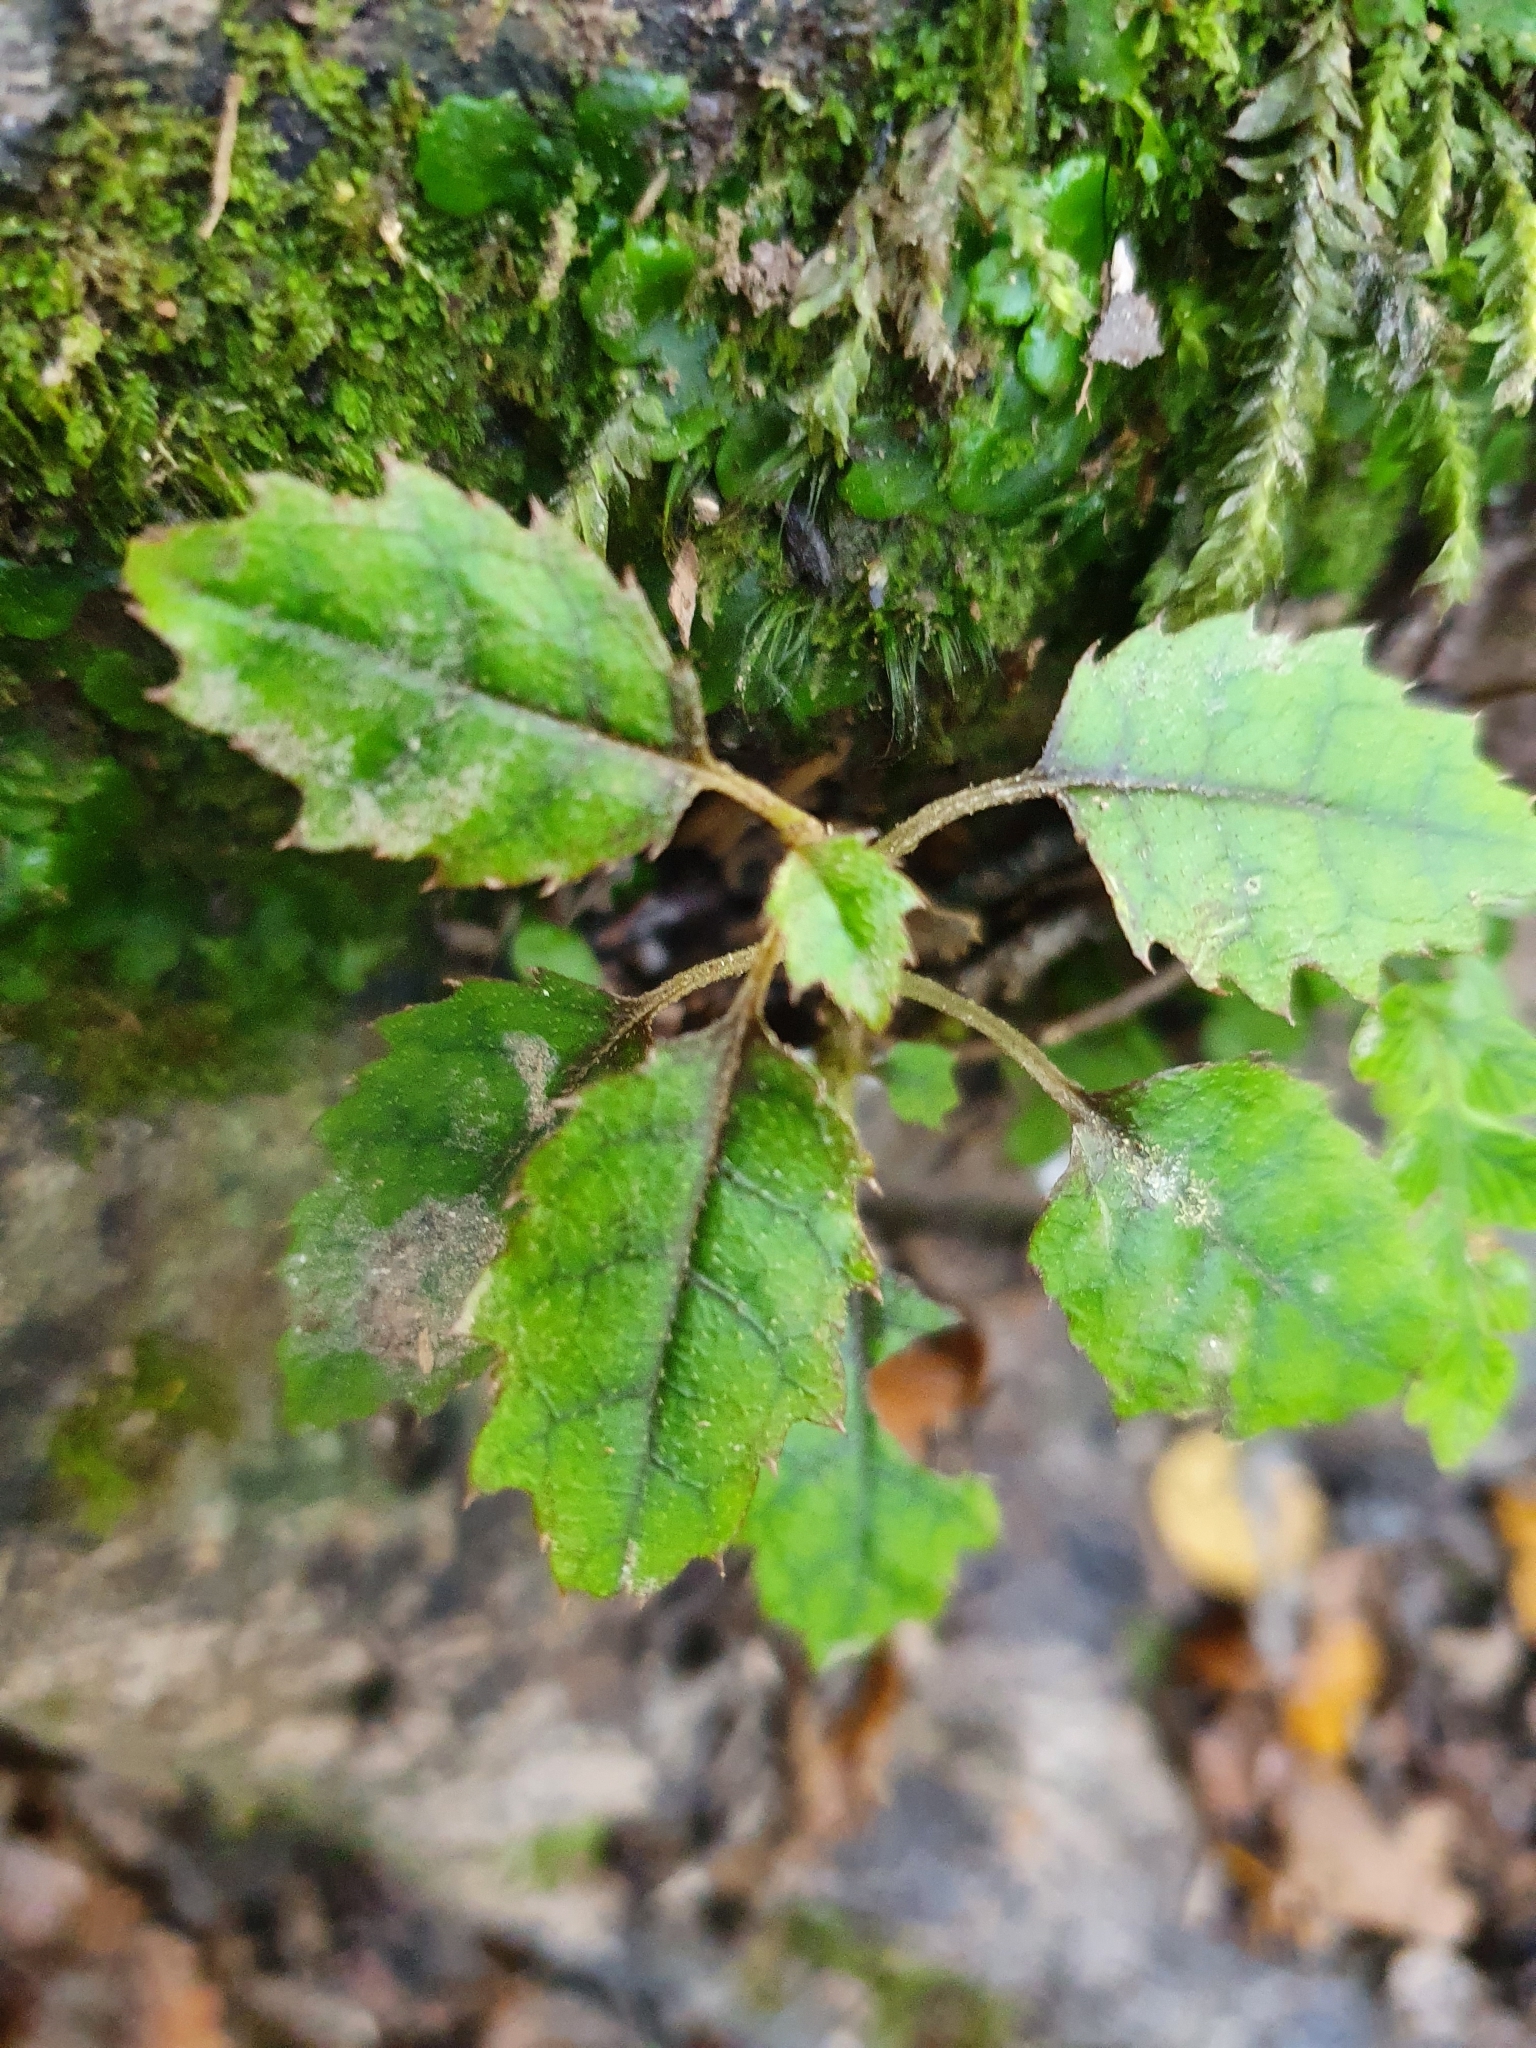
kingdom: Plantae
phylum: Tracheophyta
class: Magnoliopsida
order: Asterales
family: Rousseaceae
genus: Carpodetus
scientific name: Carpodetus serratus
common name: White mapau
